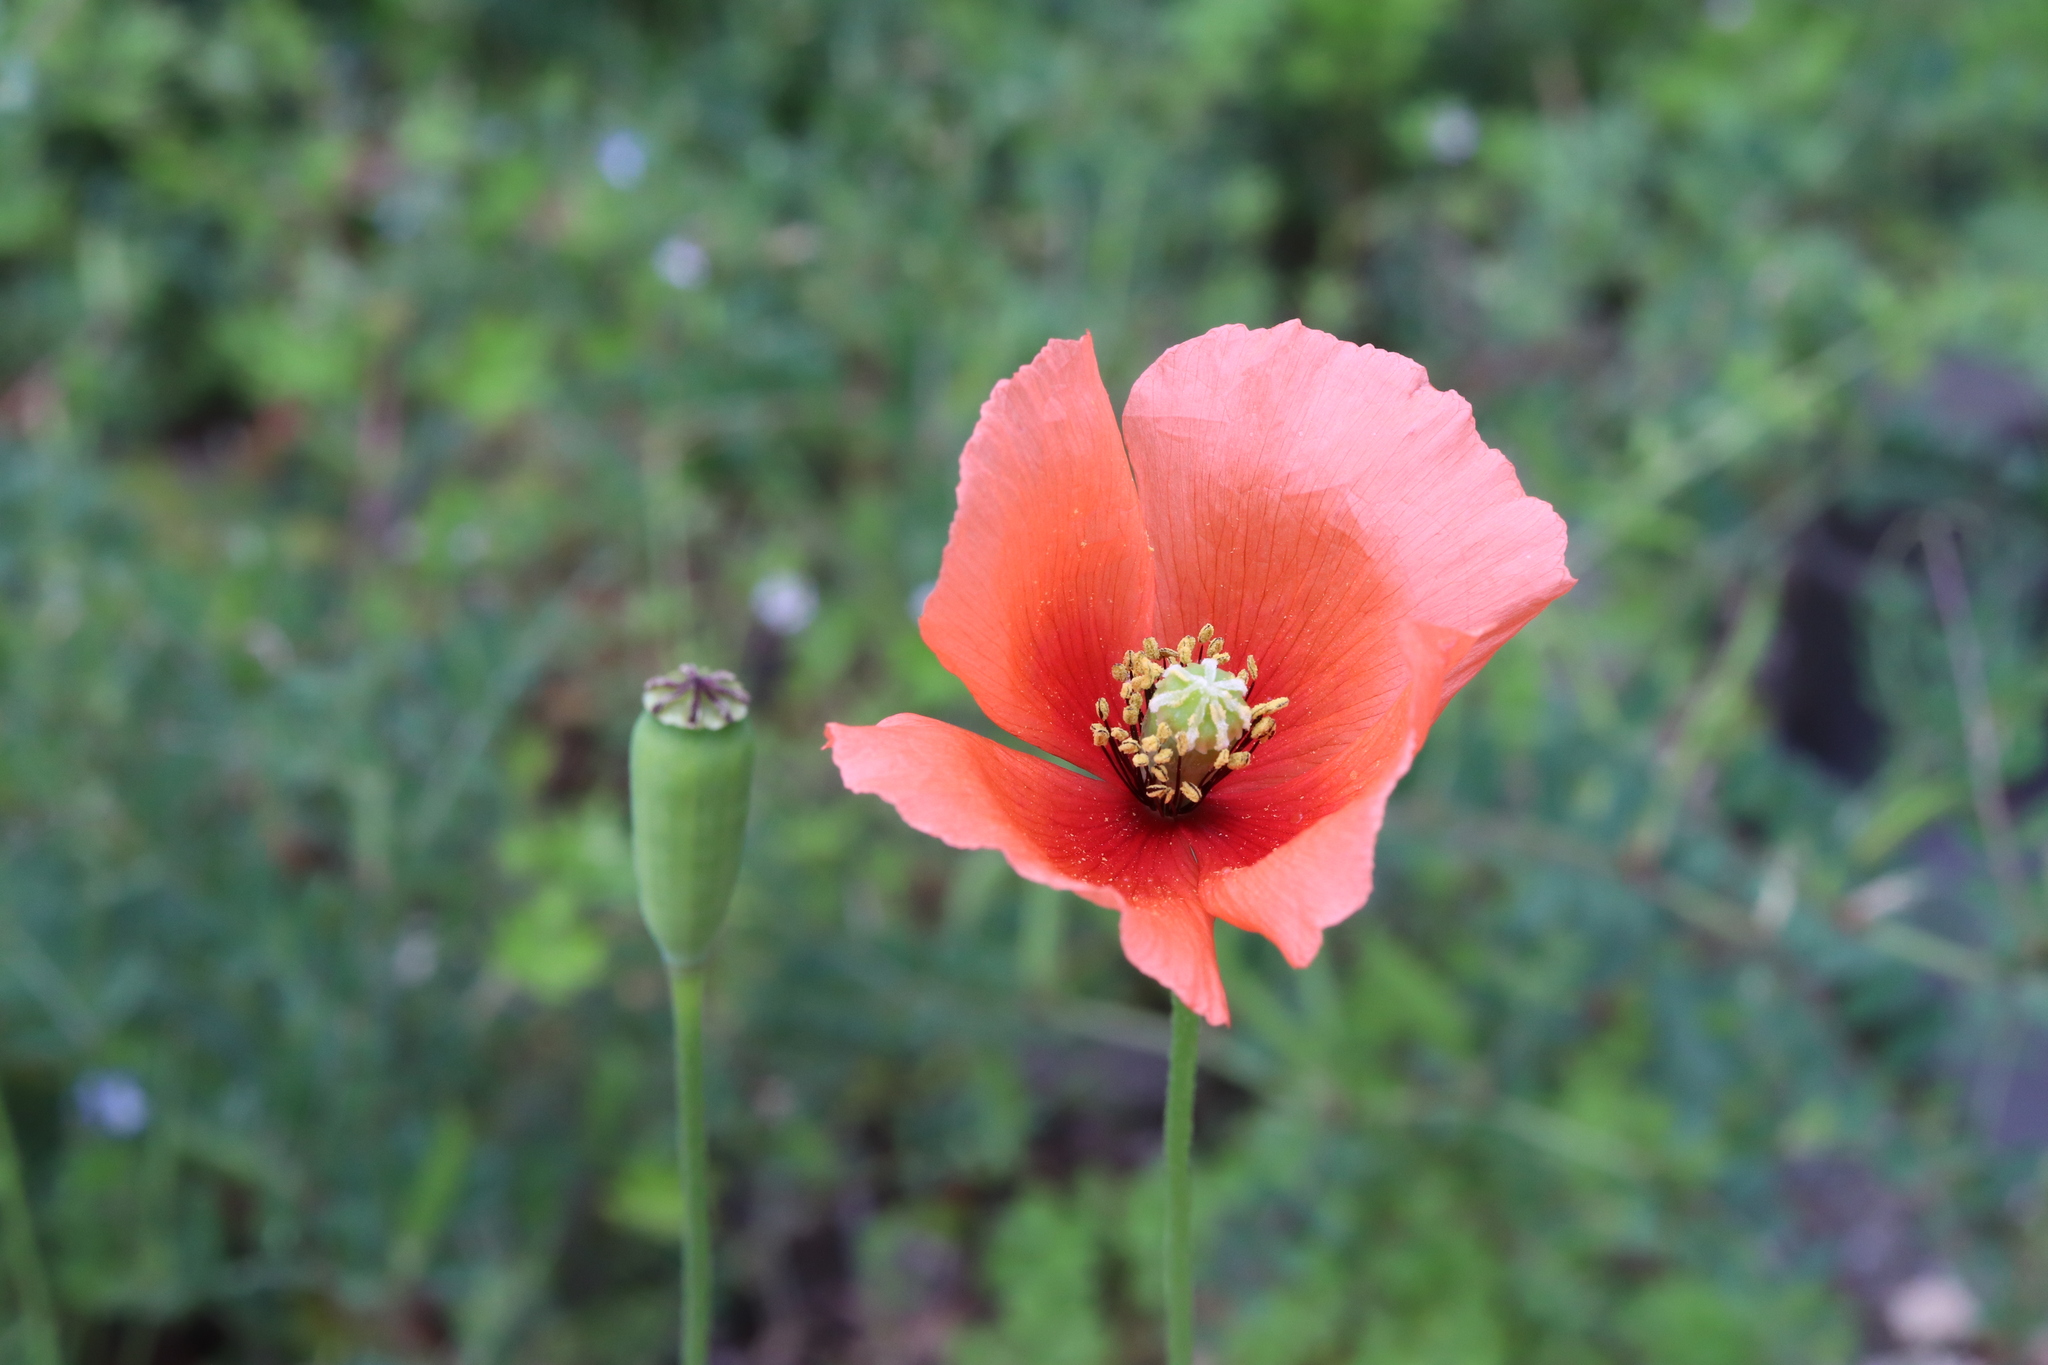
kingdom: Plantae
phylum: Tracheophyta
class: Magnoliopsida
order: Ranunculales
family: Papaveraceae
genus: Papaver
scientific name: Papaver dubium
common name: Long-headed poppy
